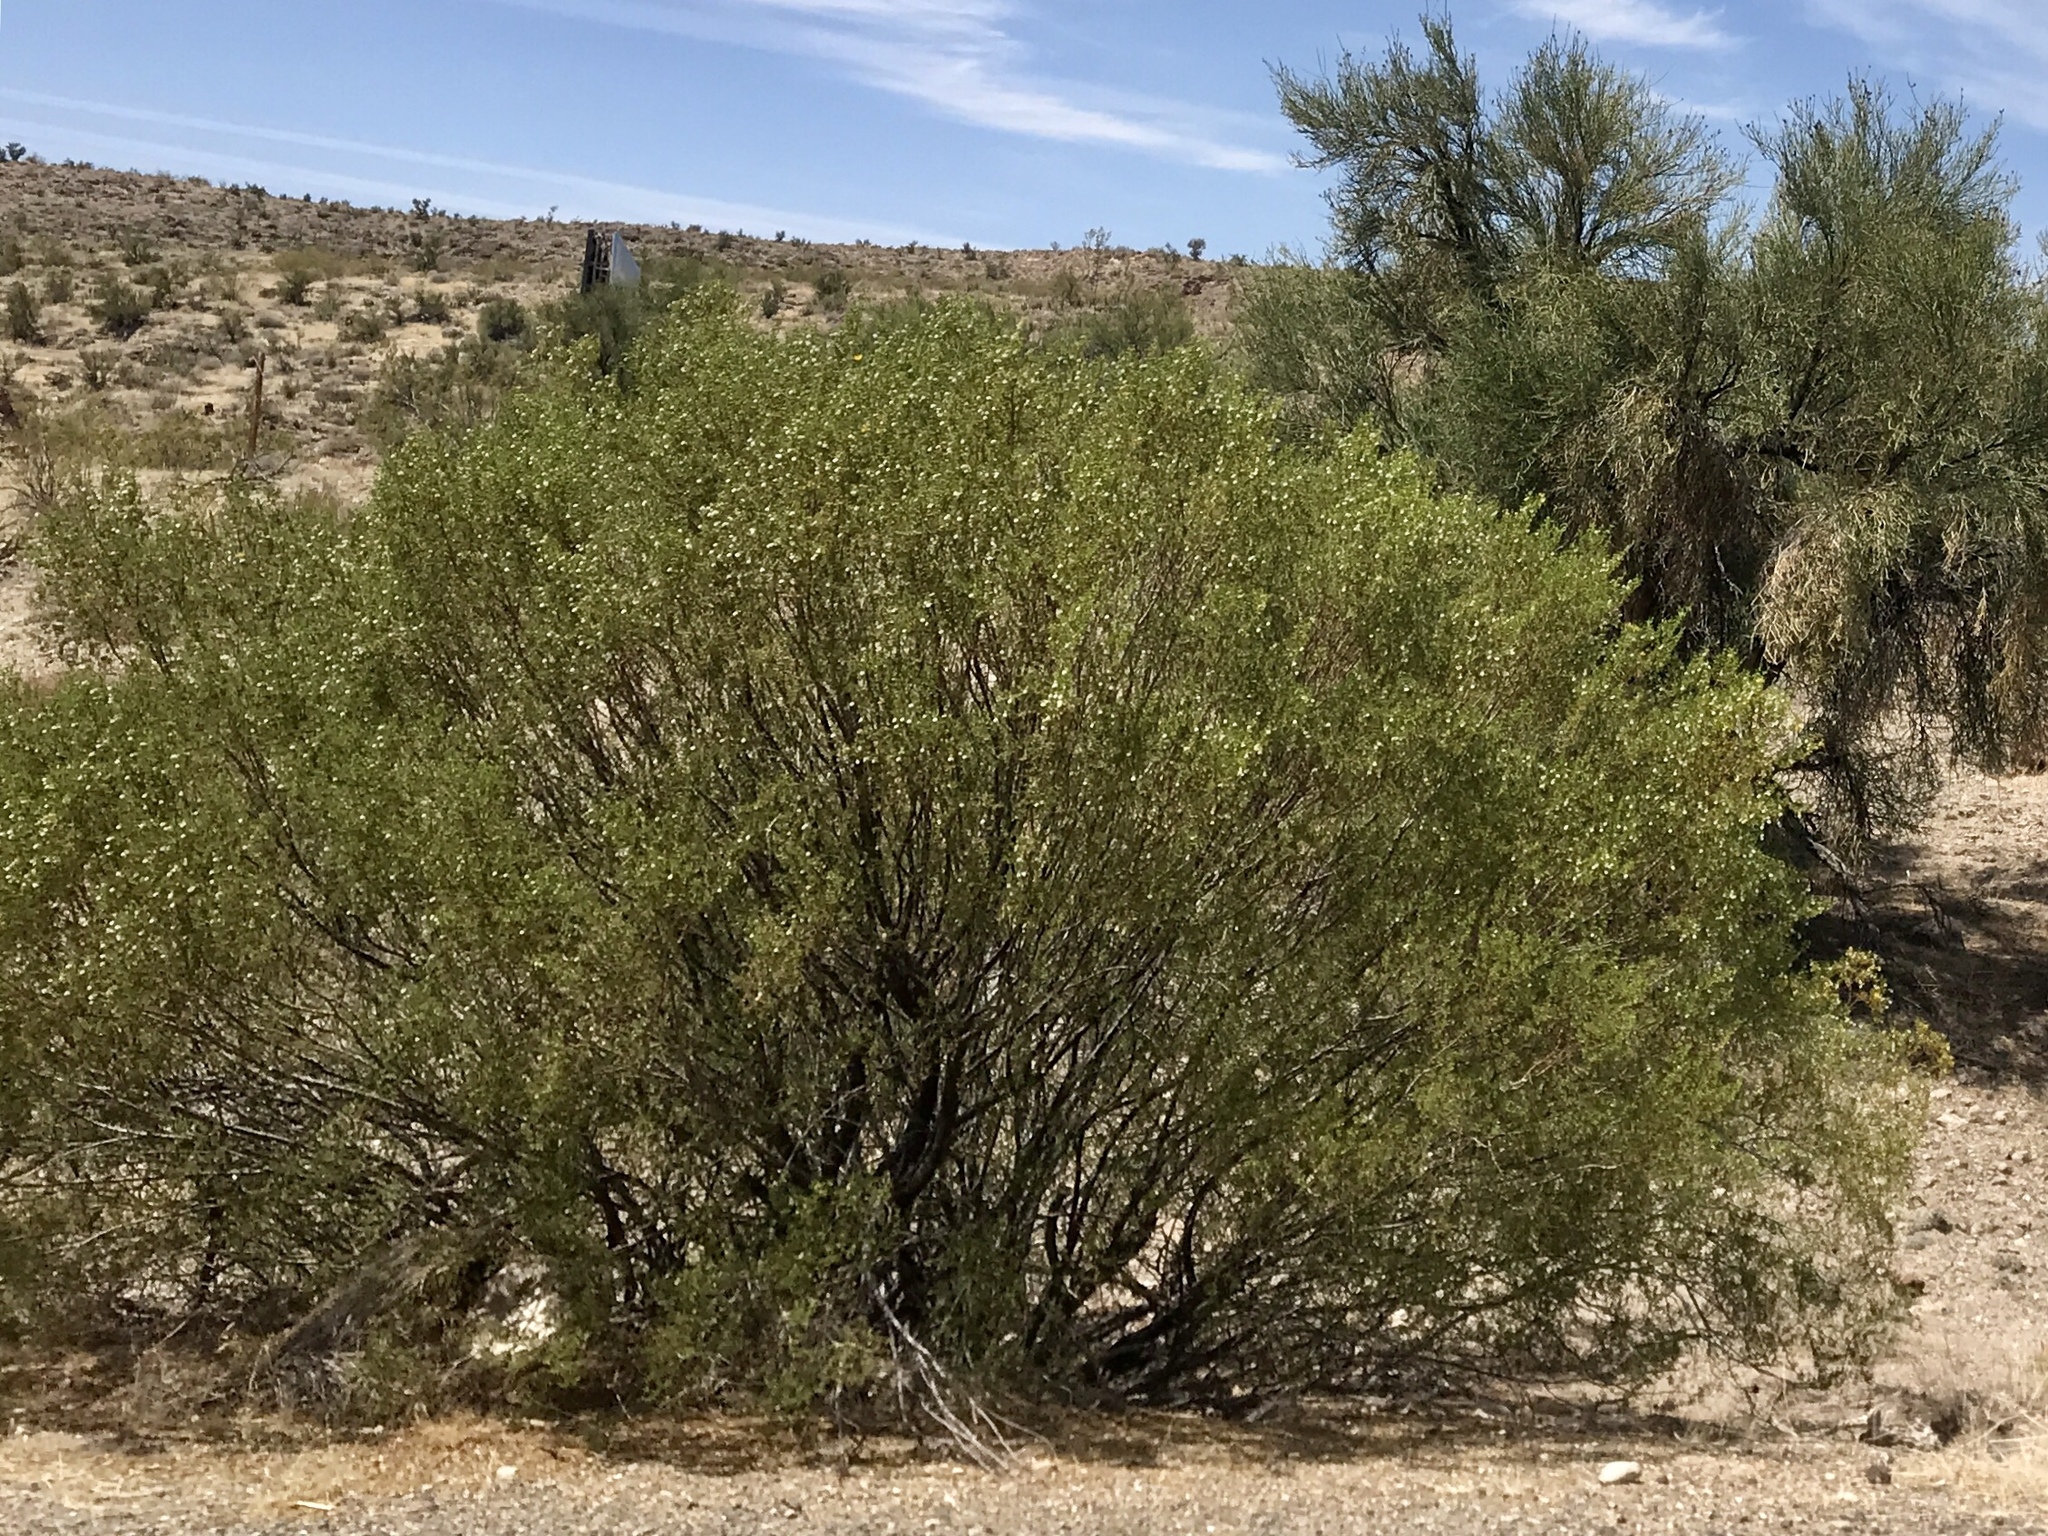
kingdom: Plantae
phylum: Tracheophyta
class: Magnoliopsida
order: Zygophyllales
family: Zygophyllaceae
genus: Larrea
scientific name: Larrea tridentata
